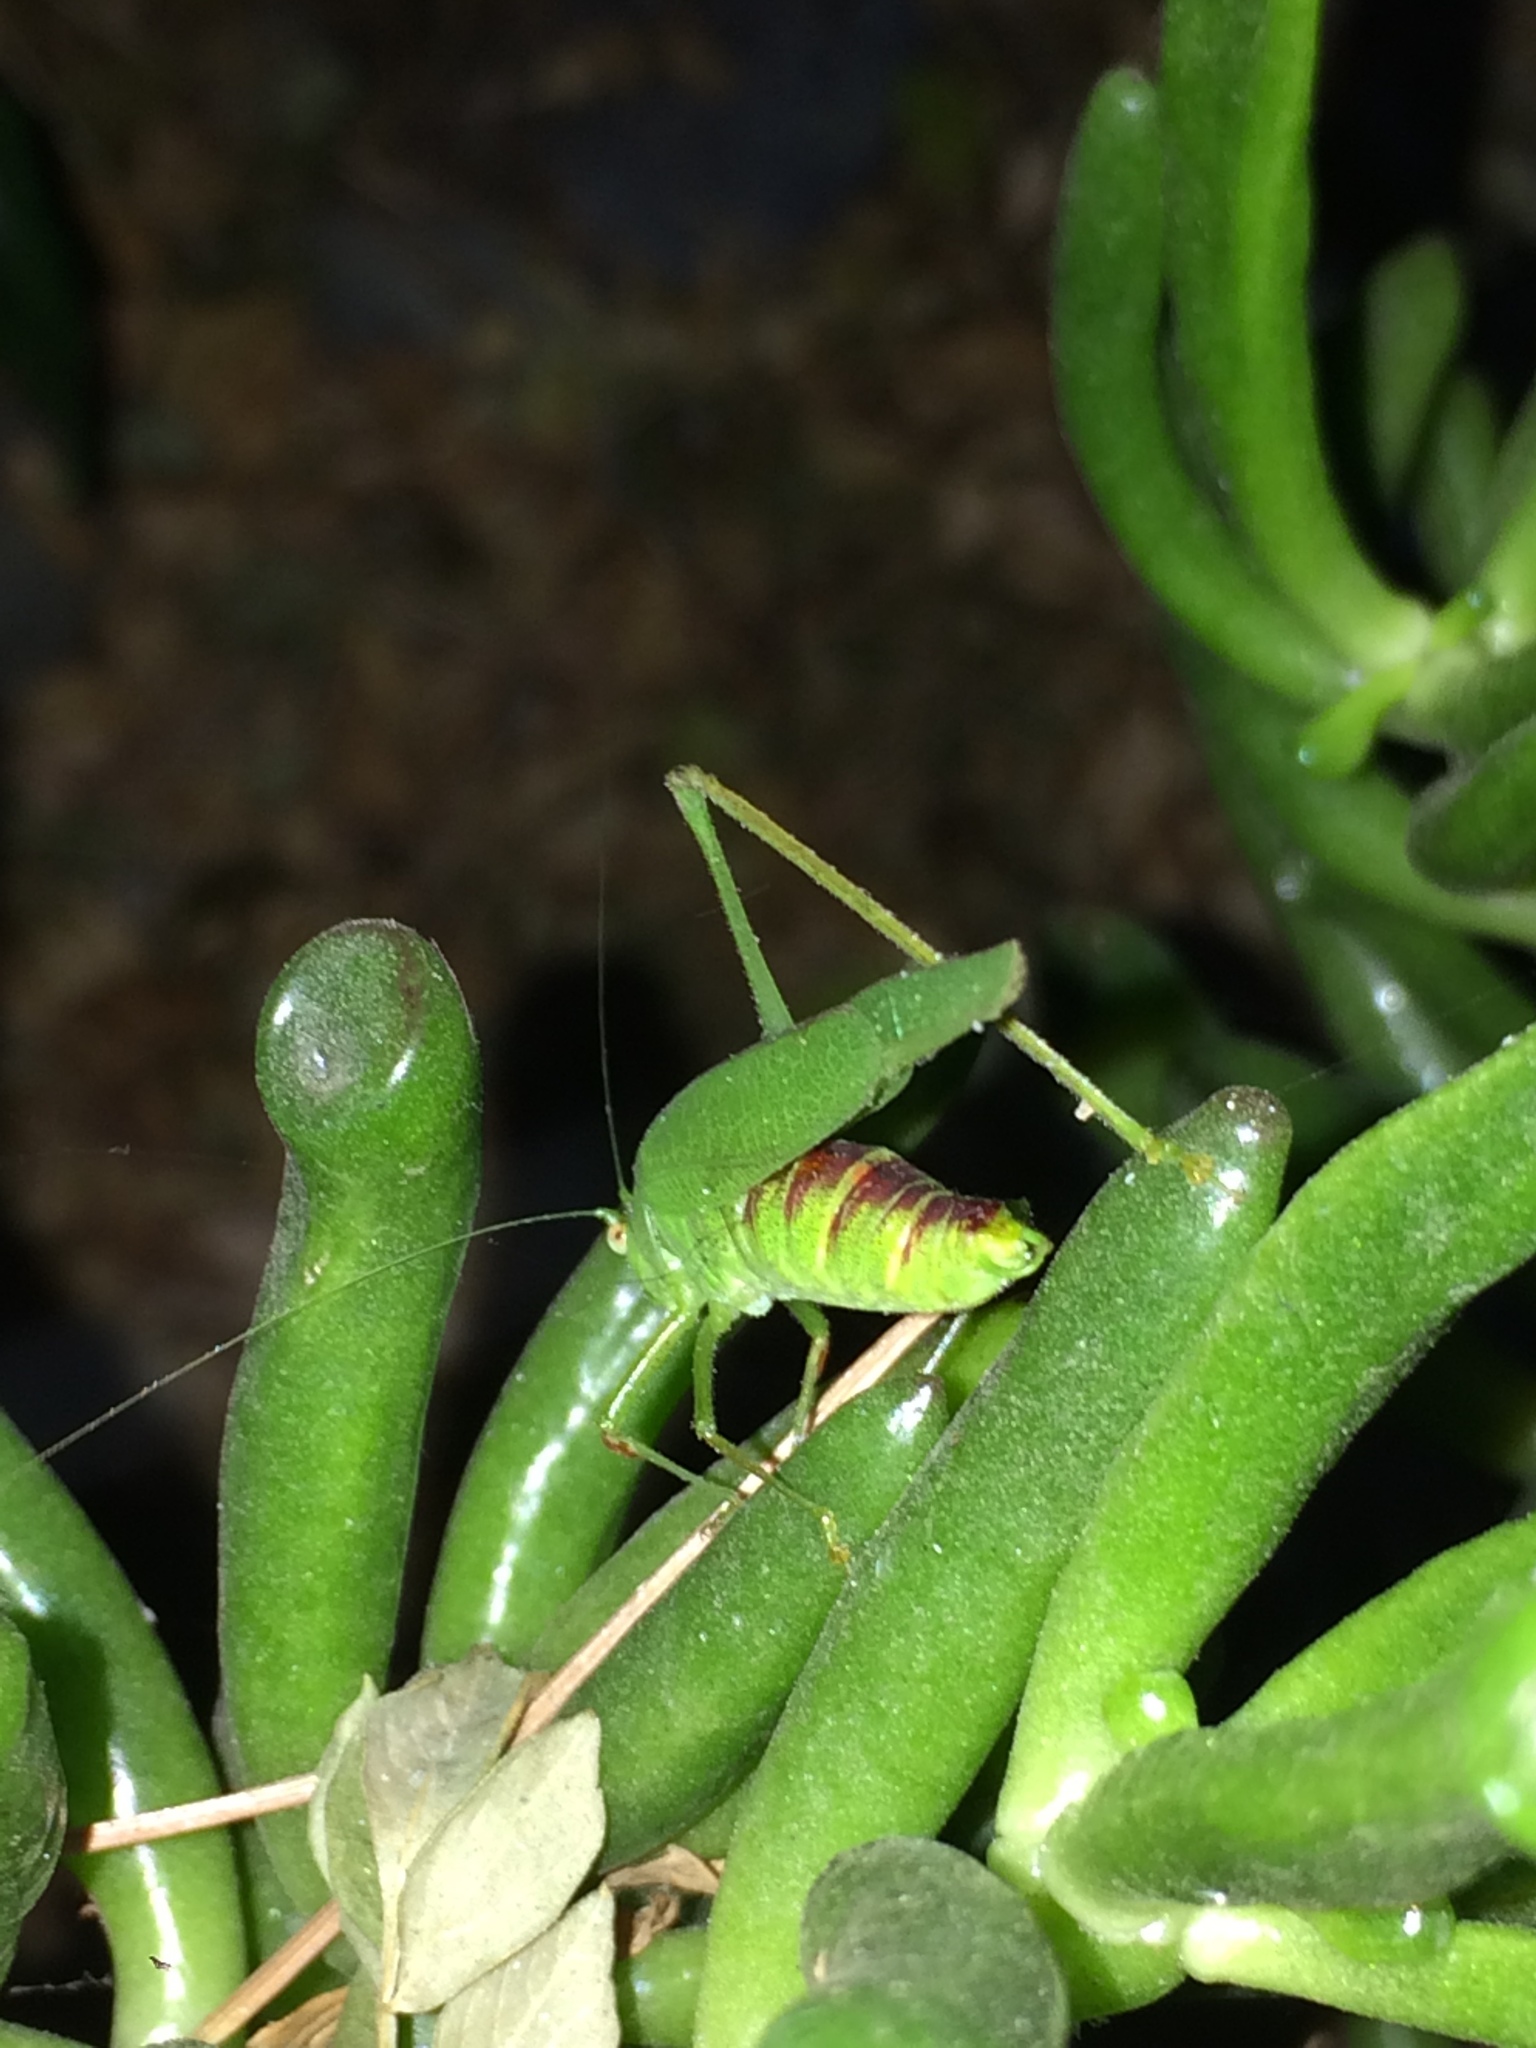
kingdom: Animalia
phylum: Arthropoda
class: Insecta
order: Orthoptera
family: Tettigoniidae
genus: Phaneroptera
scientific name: Phaneroptera nana
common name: Southern sickle bush-cricket
